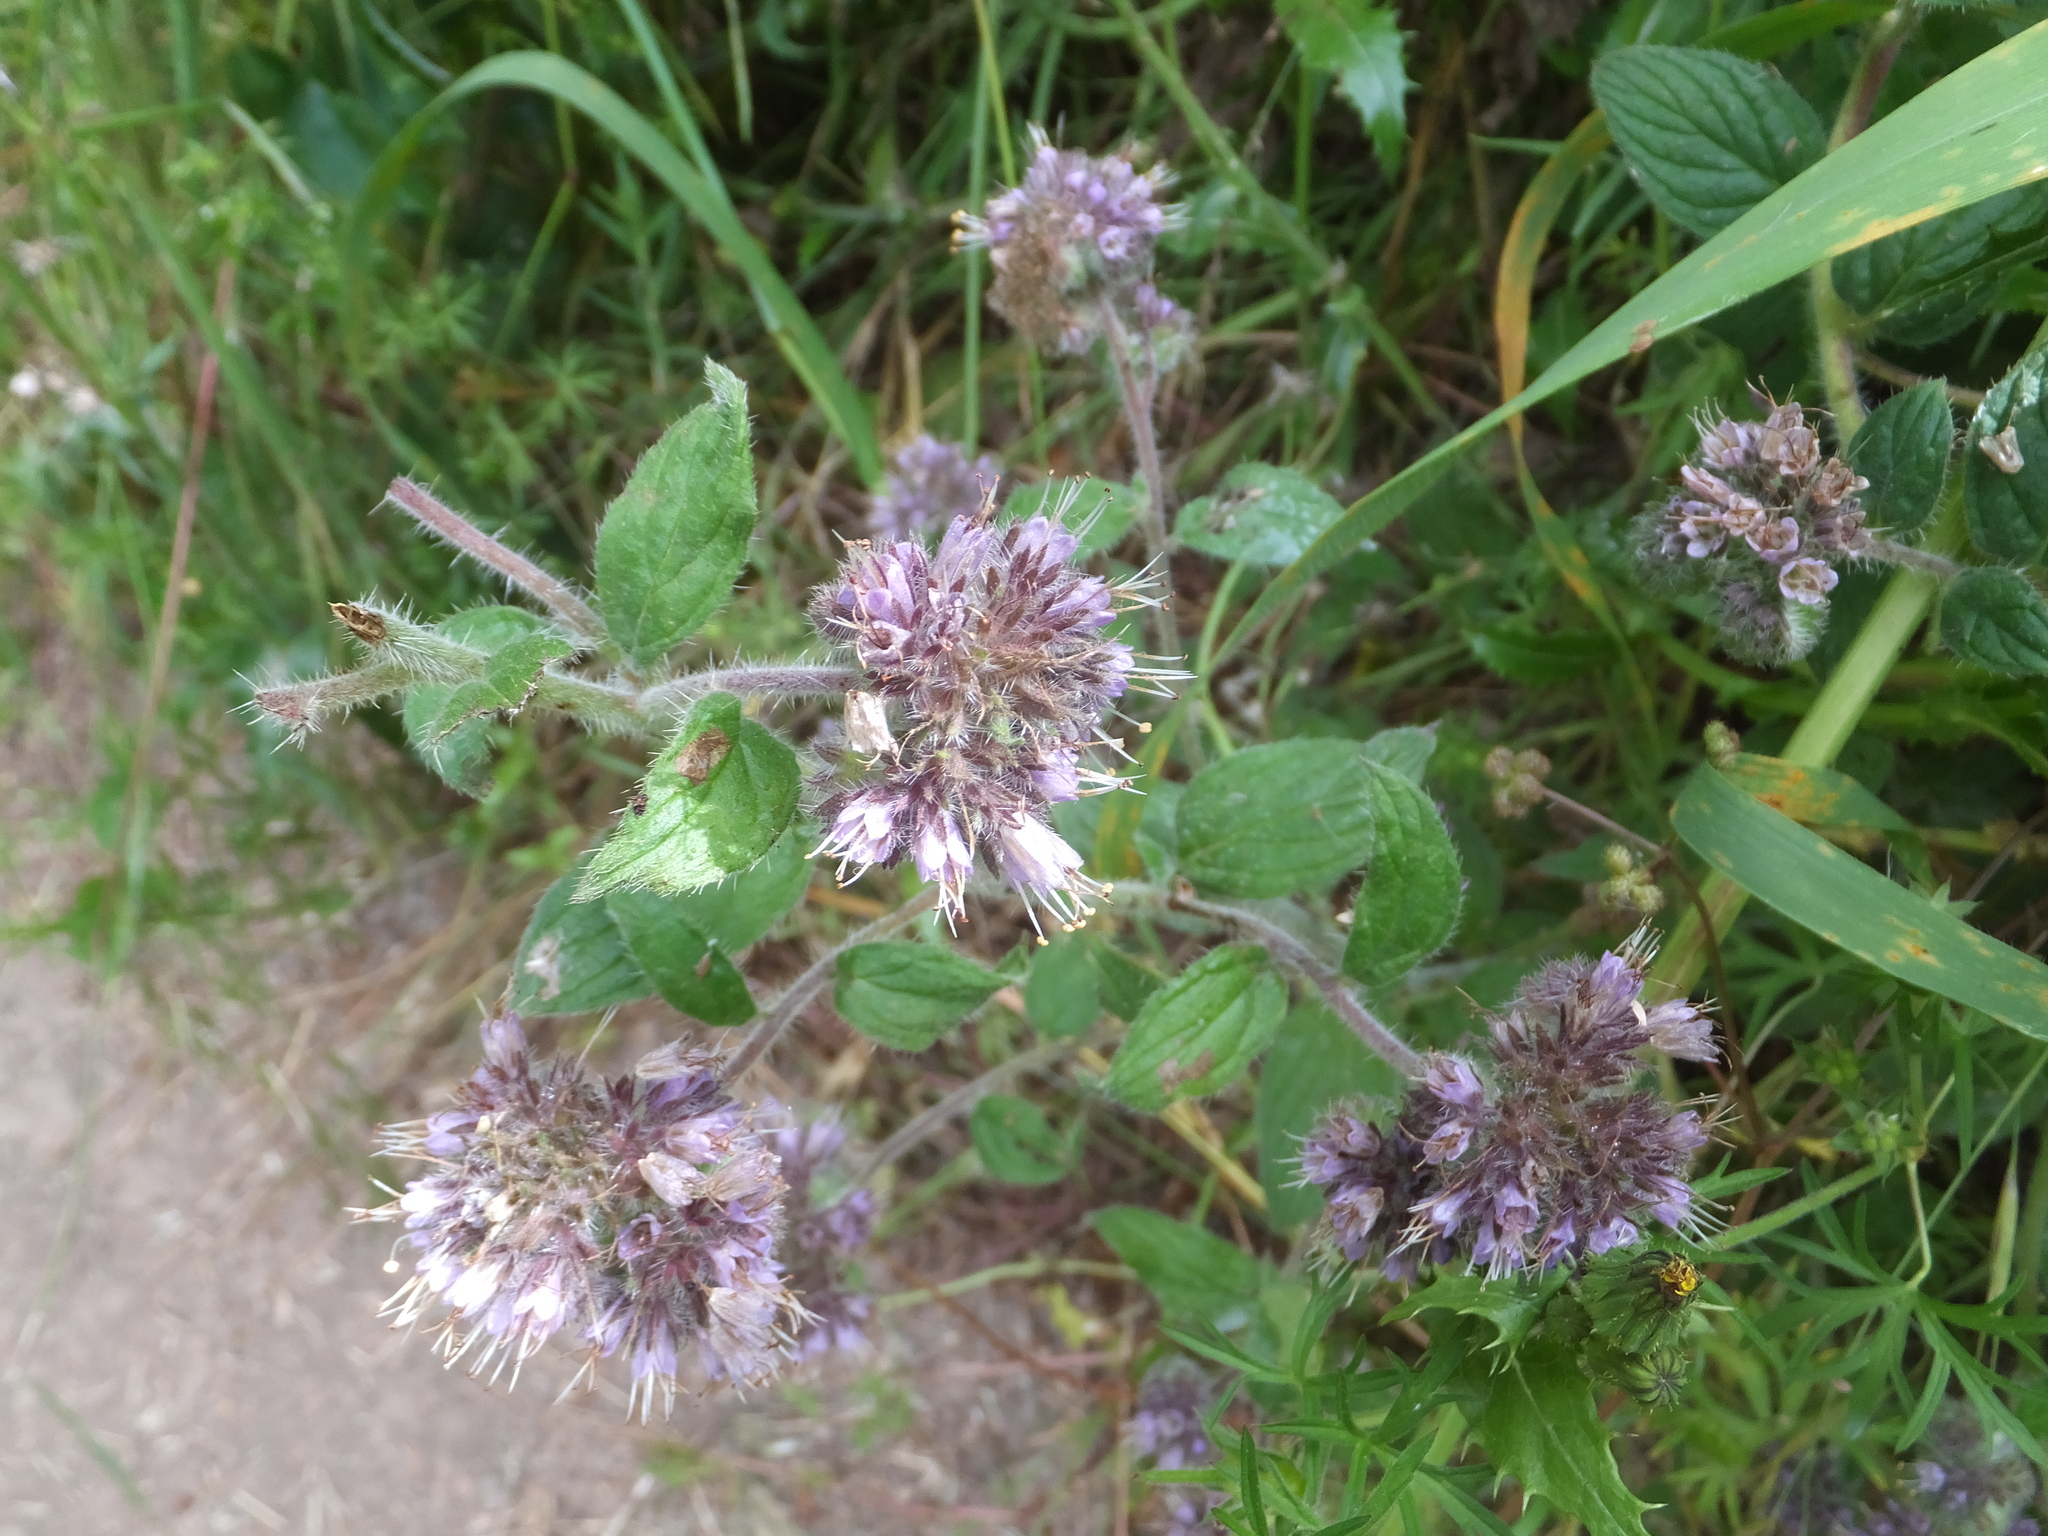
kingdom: Plantae
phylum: Tracheophyta
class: Magnoliopsida
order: Boraginales
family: Hydrophyllaceae
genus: Phacelia
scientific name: Phacelia californica
